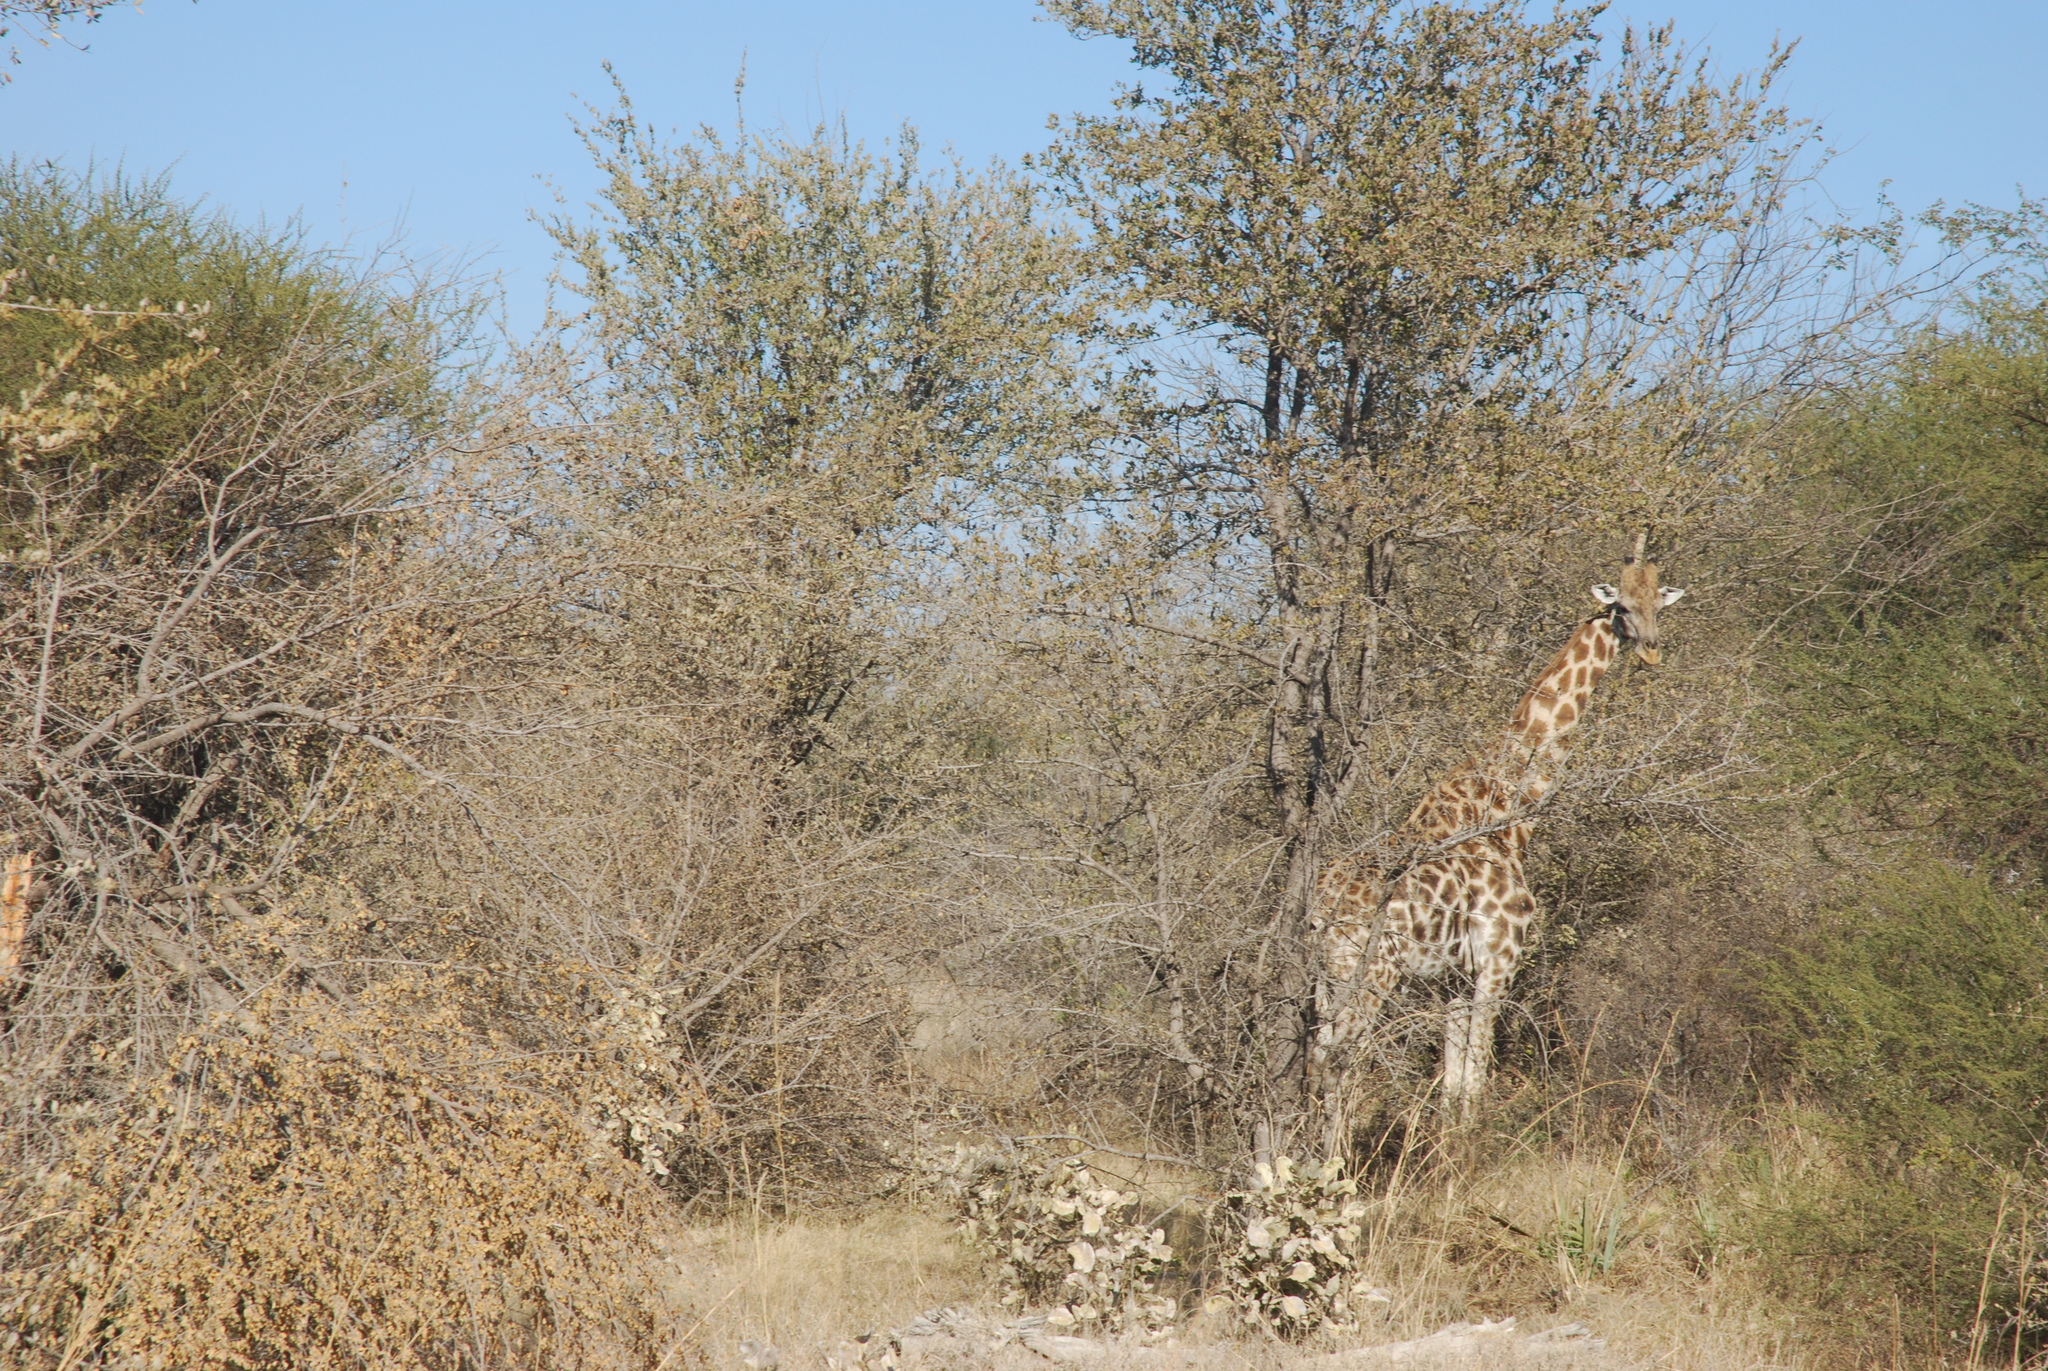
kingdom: Animalia
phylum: Chordata
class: Mammalia
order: Artiodactyla
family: Giraffidae
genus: Giraffa
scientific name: Giraffa giraffa
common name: Southern giraffe
